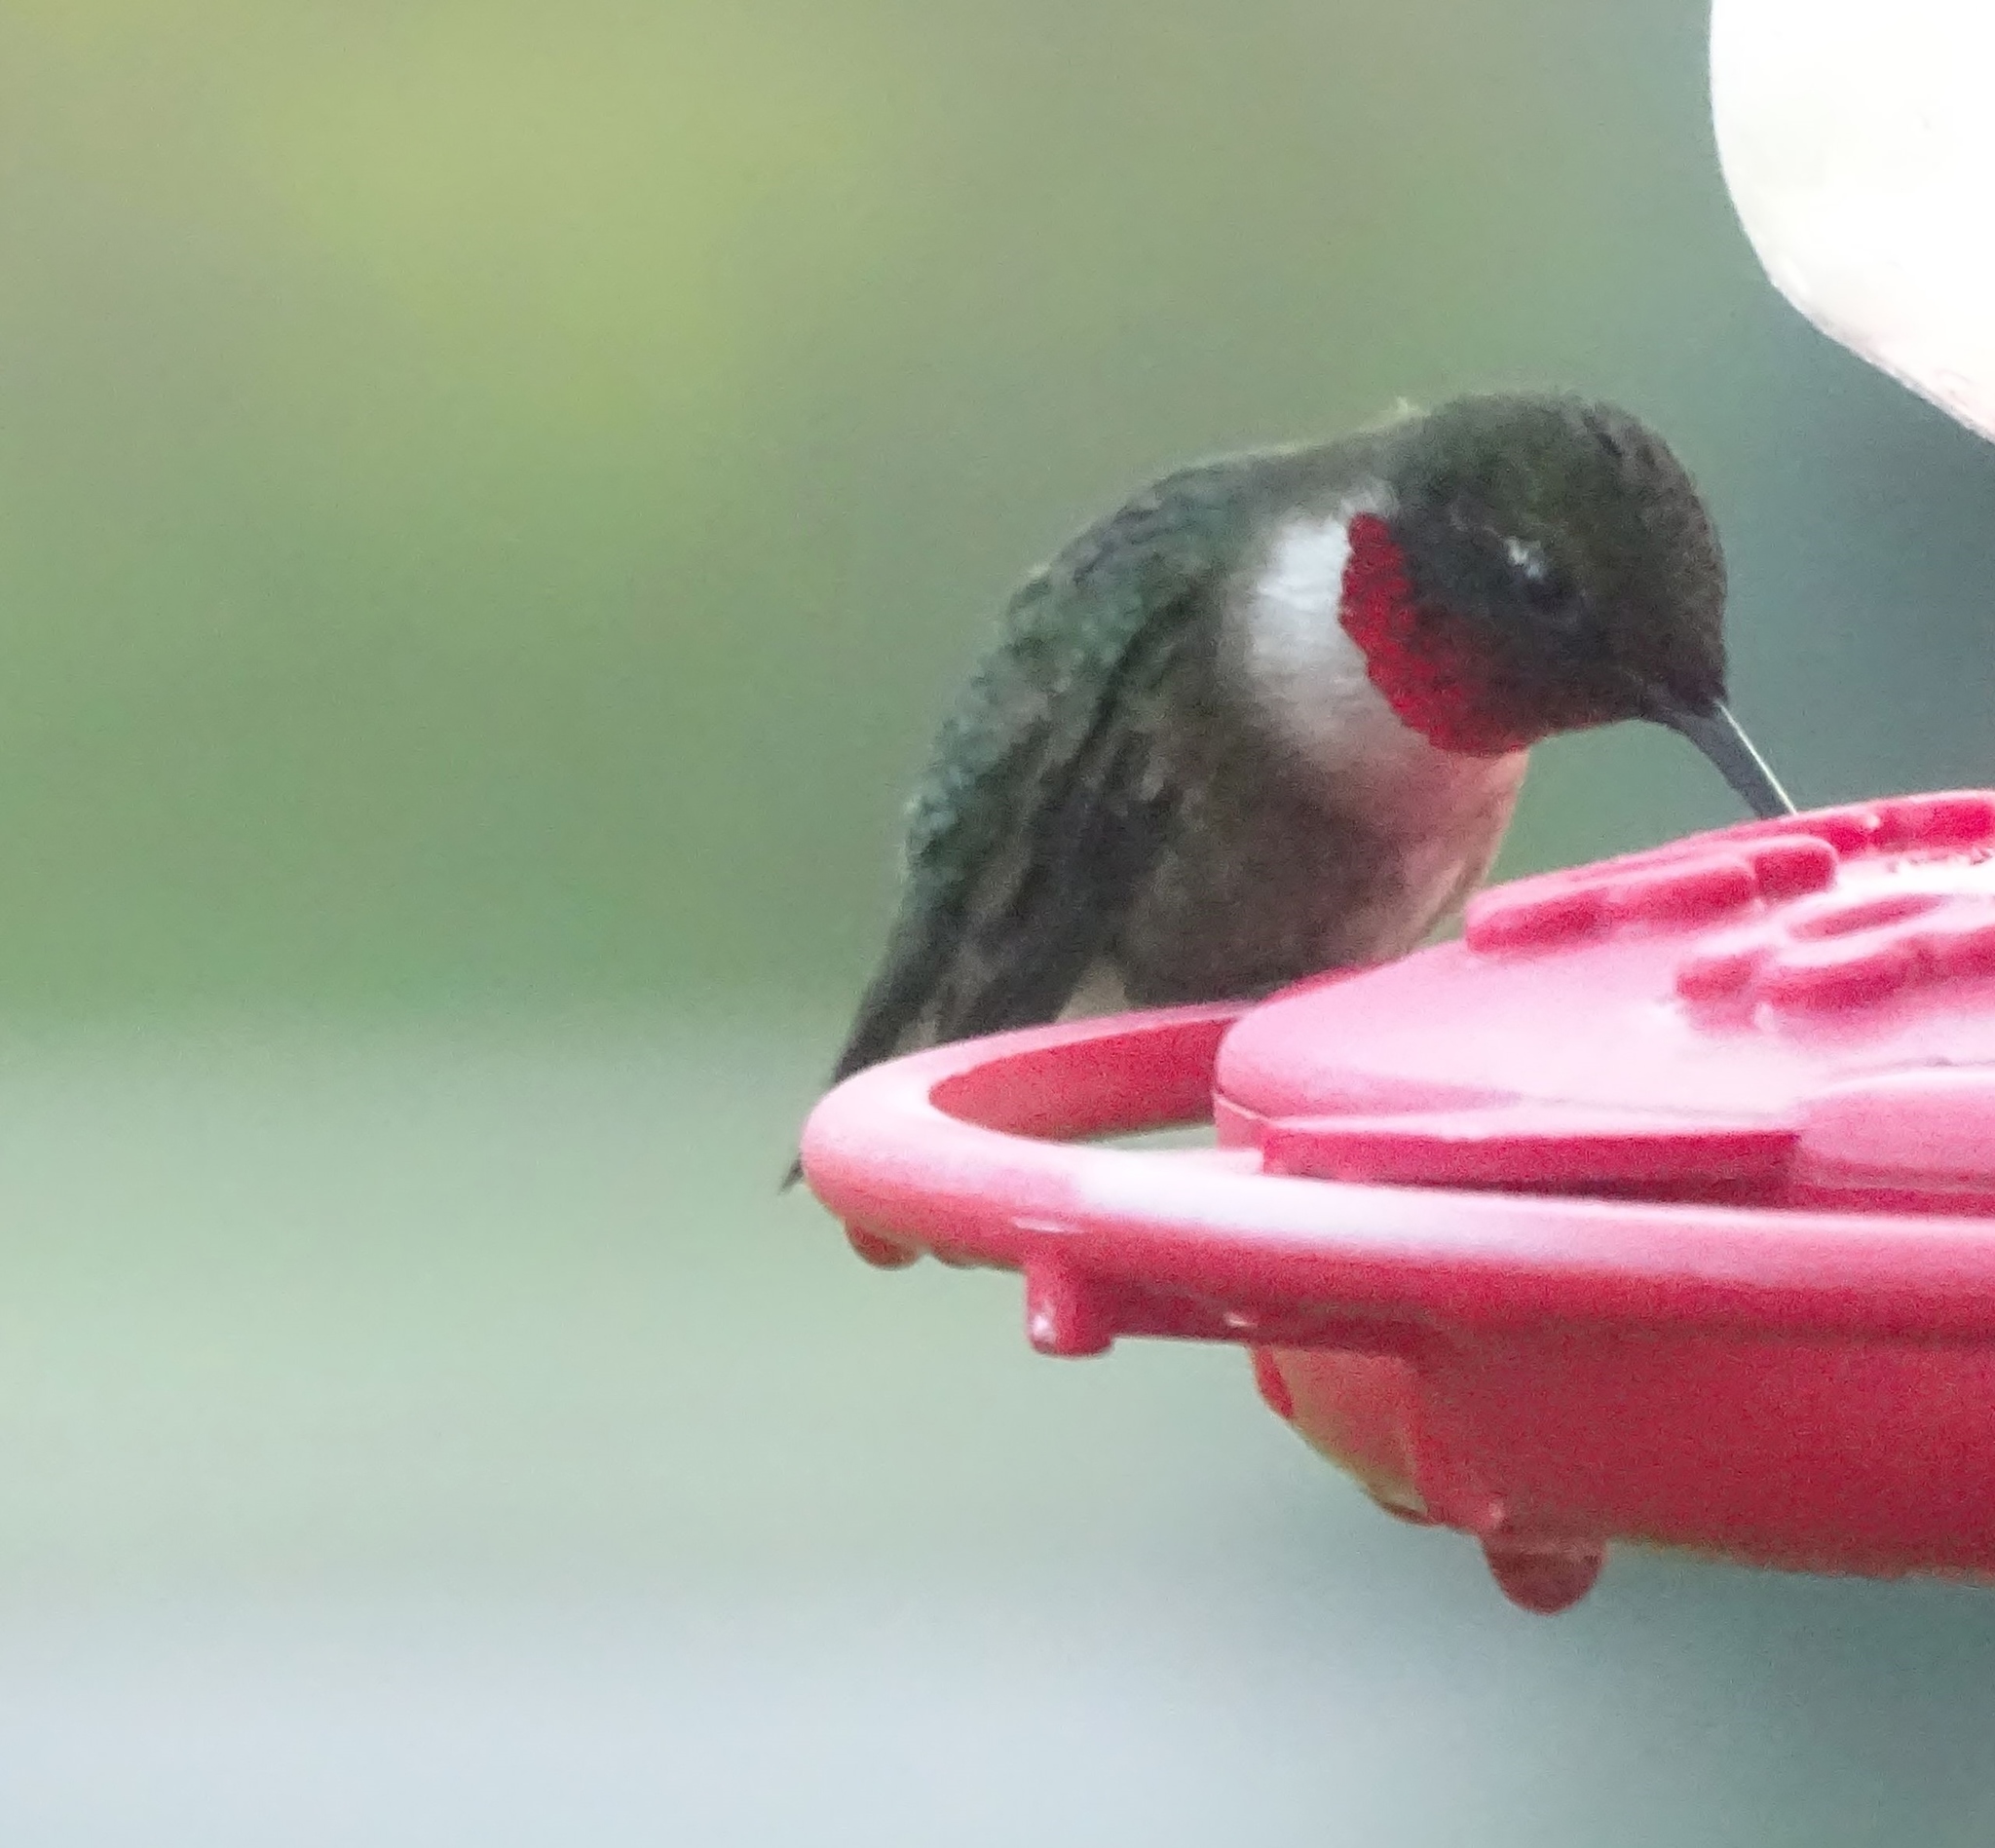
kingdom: Animalia
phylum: Chordata
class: Aves
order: Apodiformes
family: Trochilidae
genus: Archilochus
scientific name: Archilochus colubris
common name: Ruby-throated hummingbird
